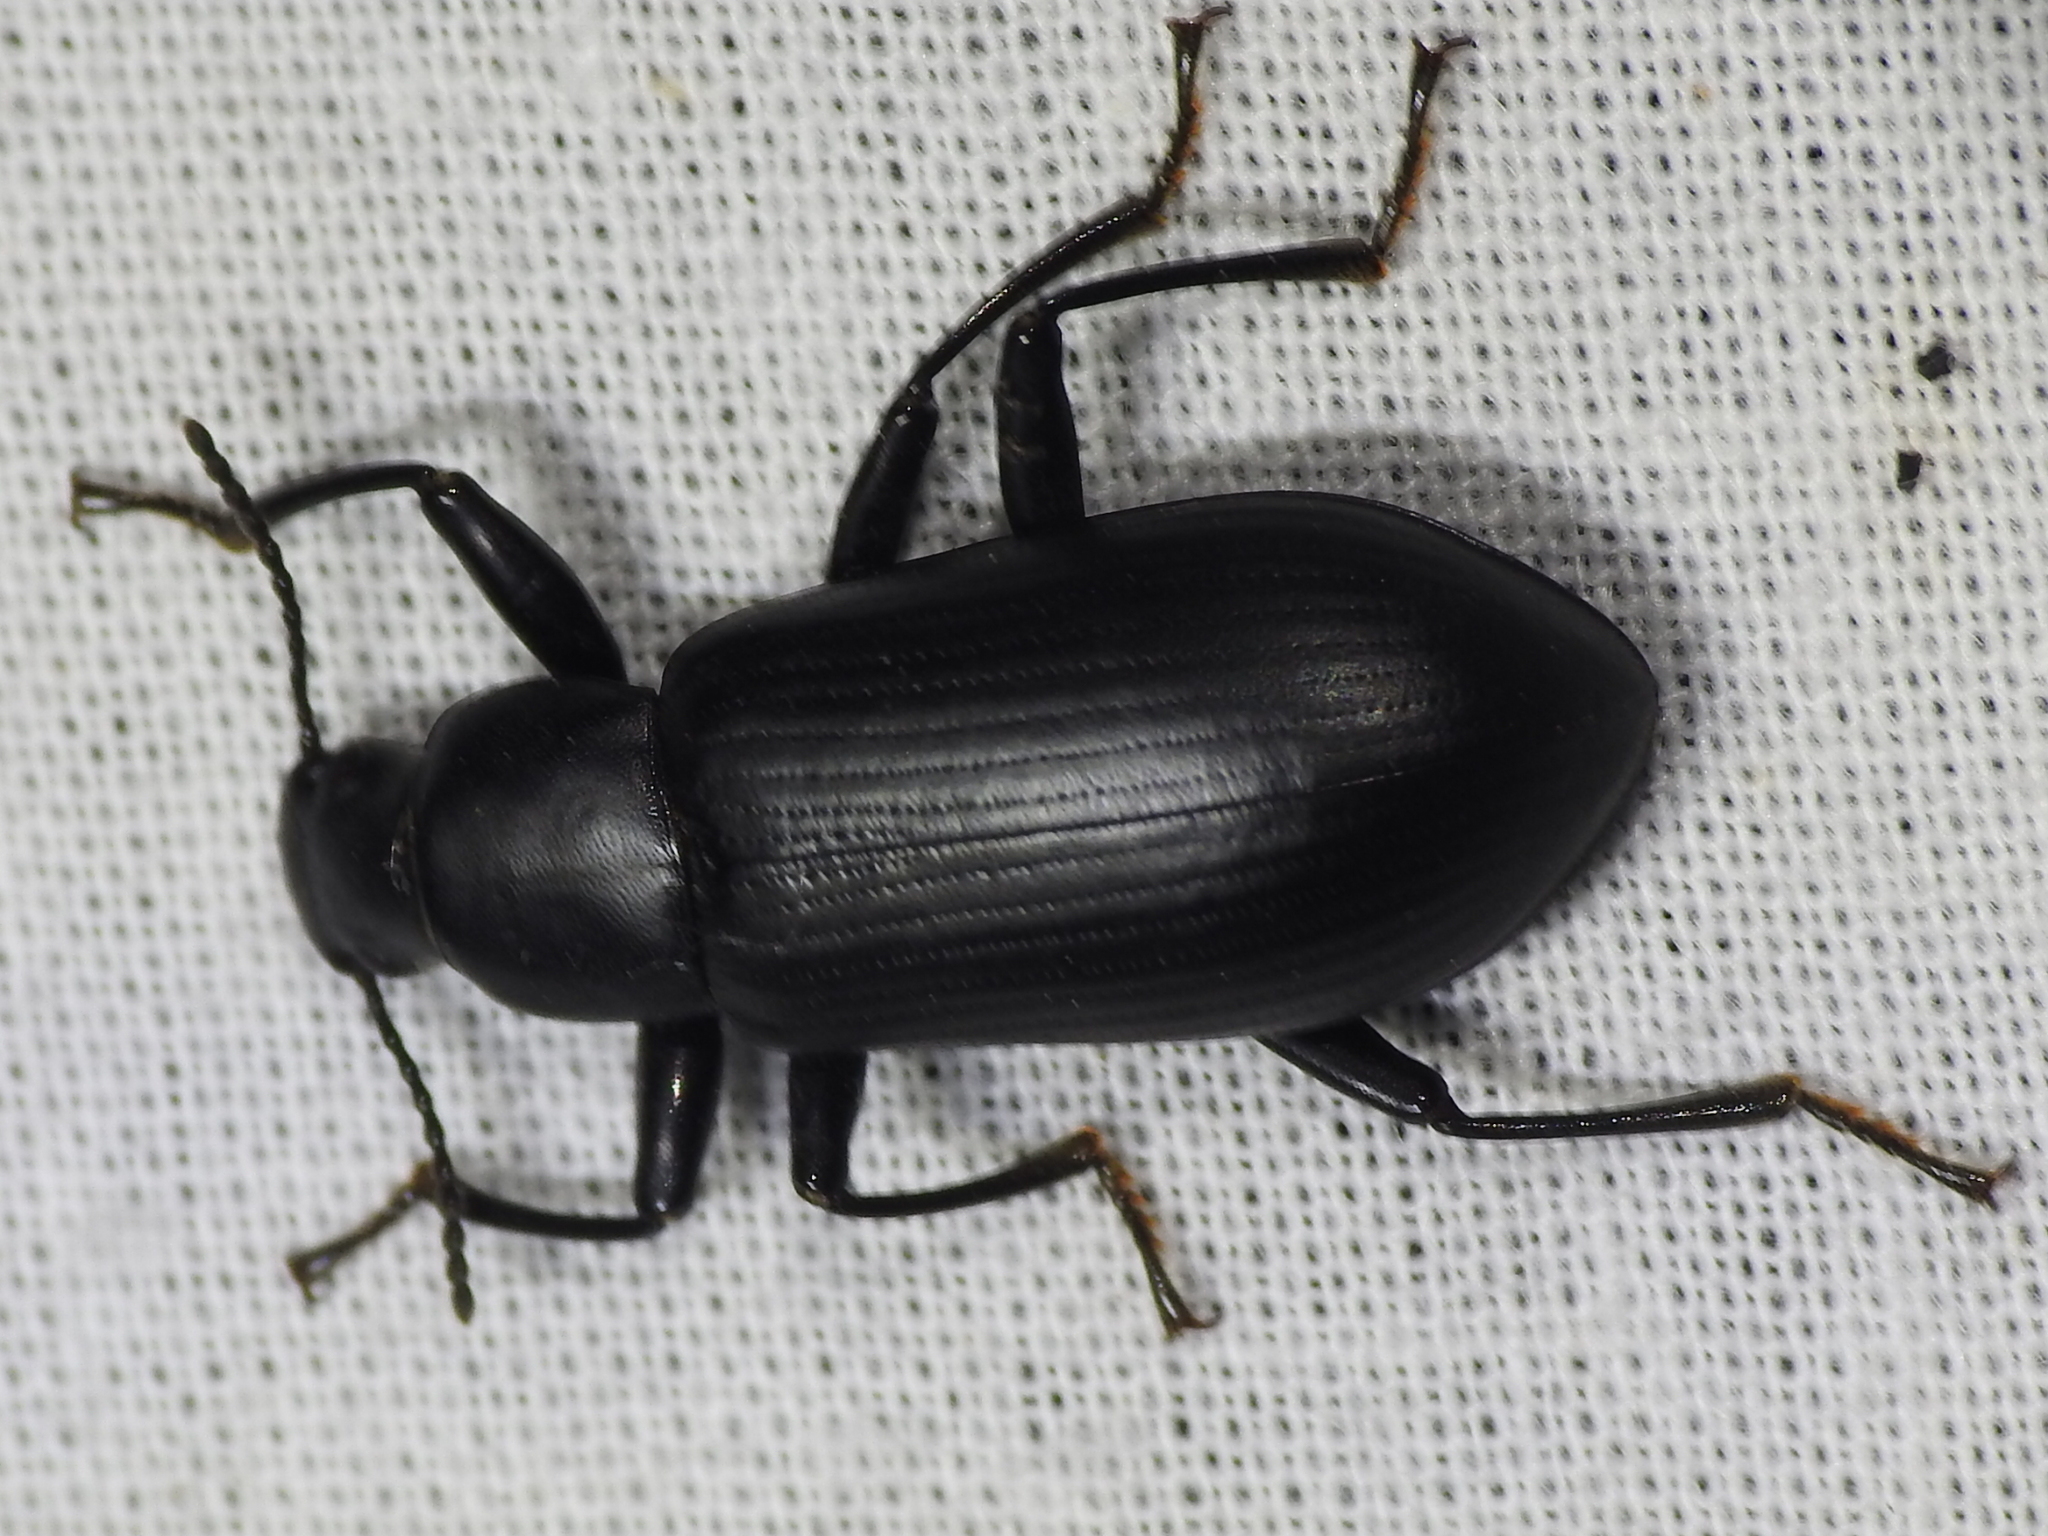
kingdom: Animalia
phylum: Arthropoda
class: Insecta
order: Coleoptera
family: Tenebrionidae
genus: Alobates
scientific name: Alobates
